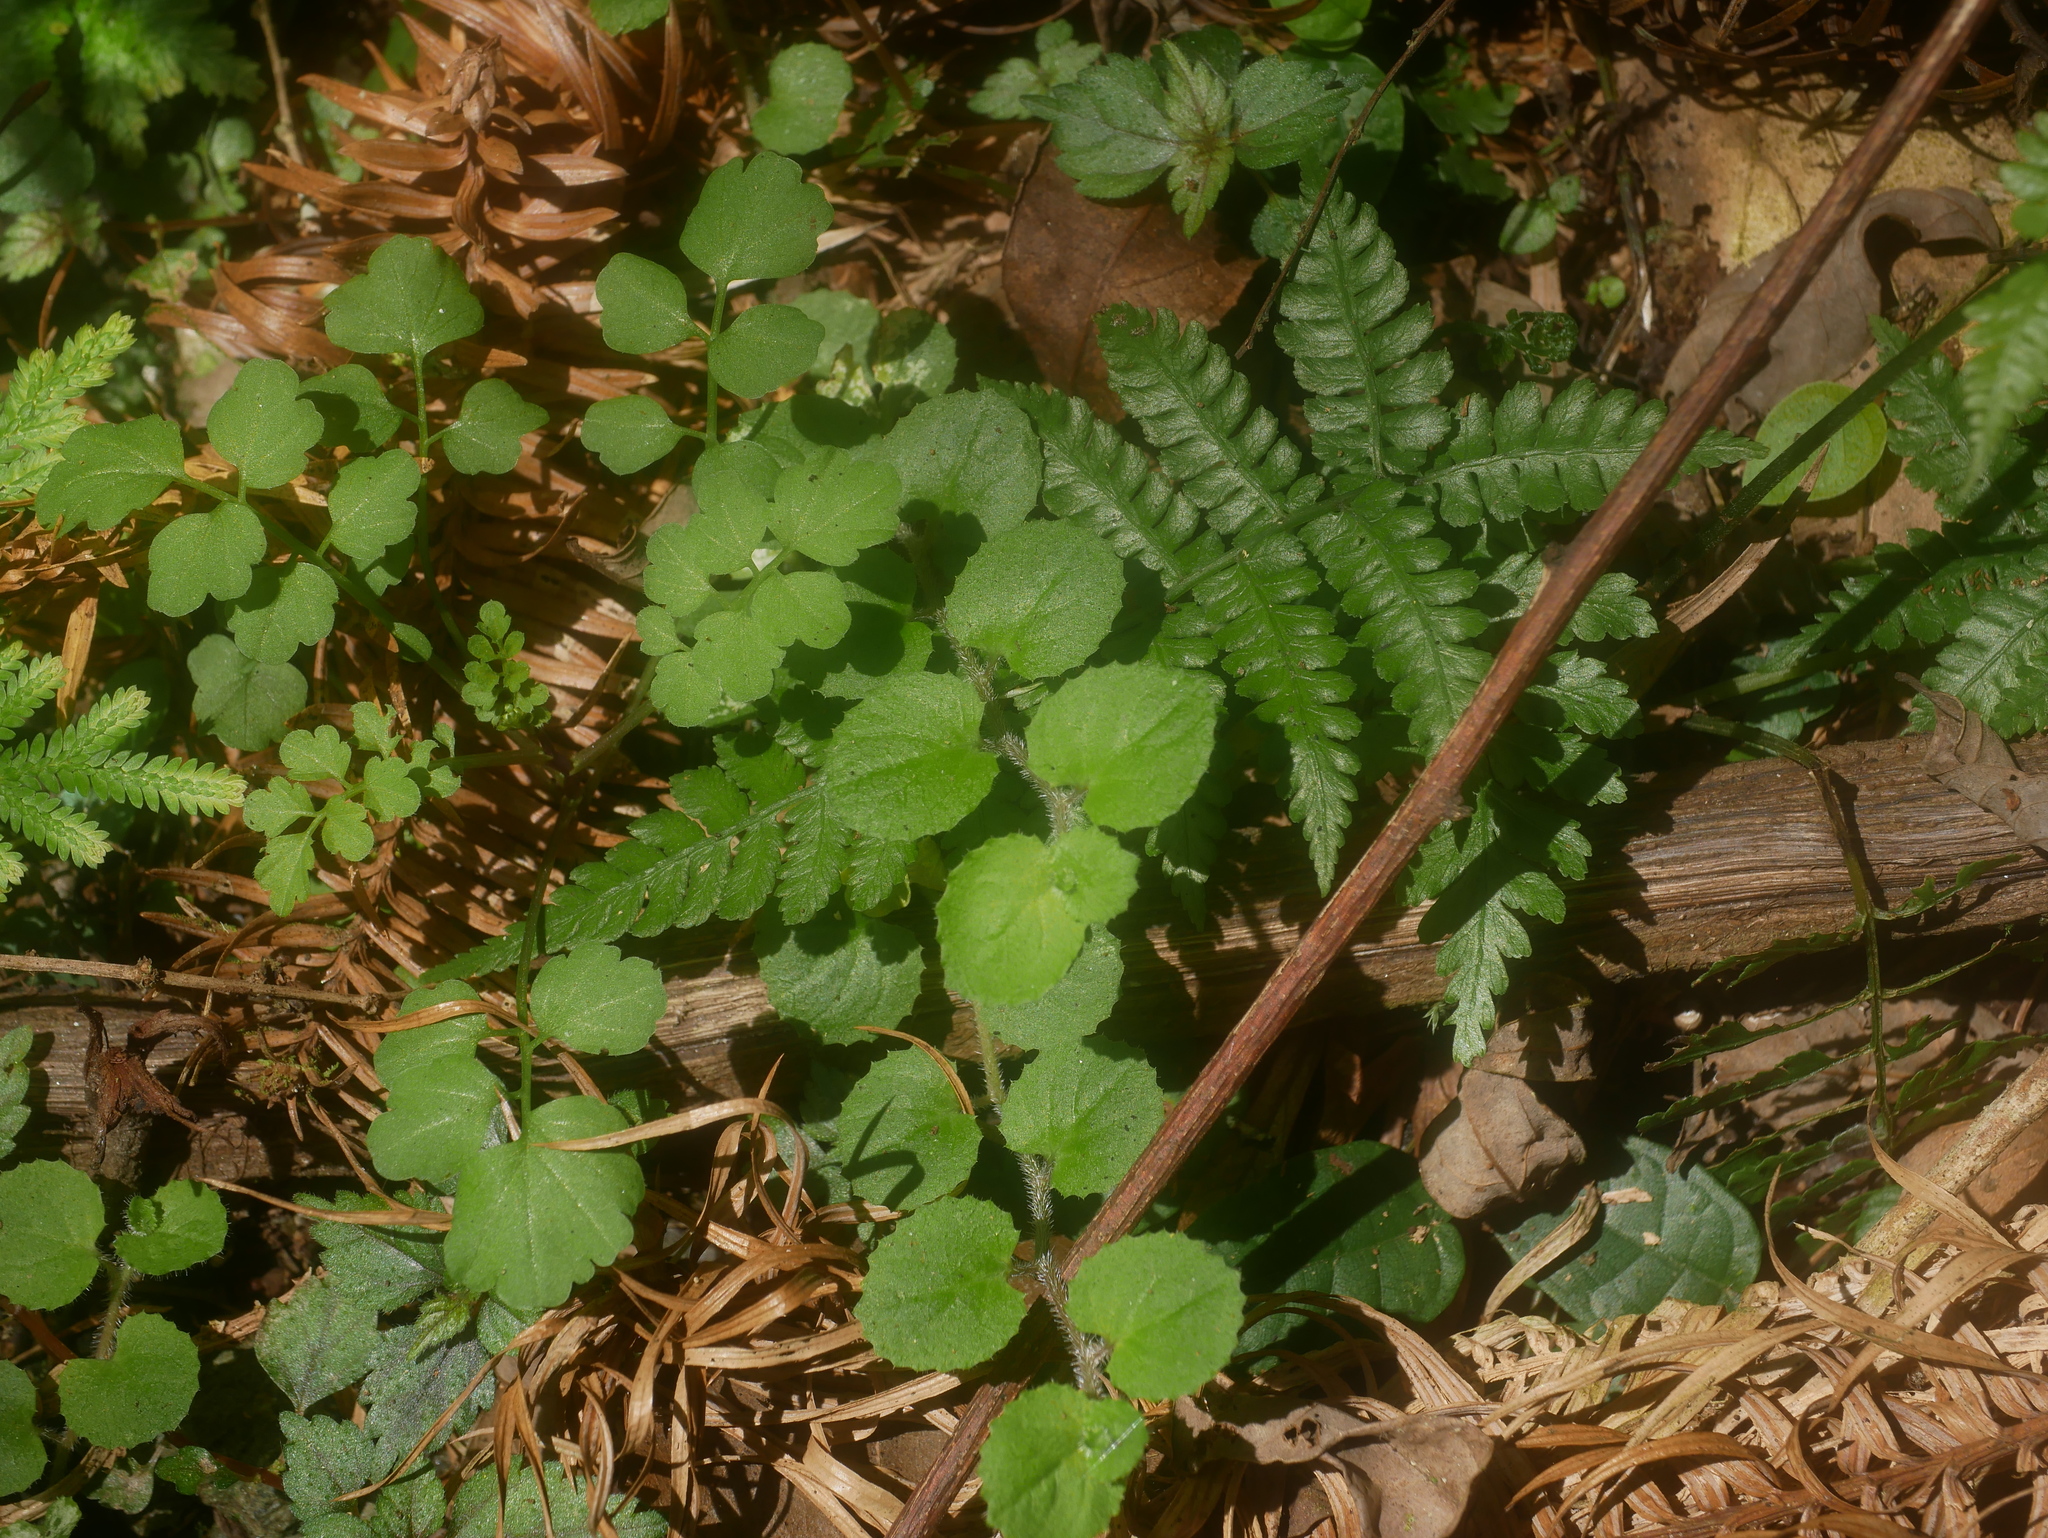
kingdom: Plantae
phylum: Tracheophyta
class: Magnoliopsida
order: Asterales
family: Campanulaceae
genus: Lobelia
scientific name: Lobelia nummularia
